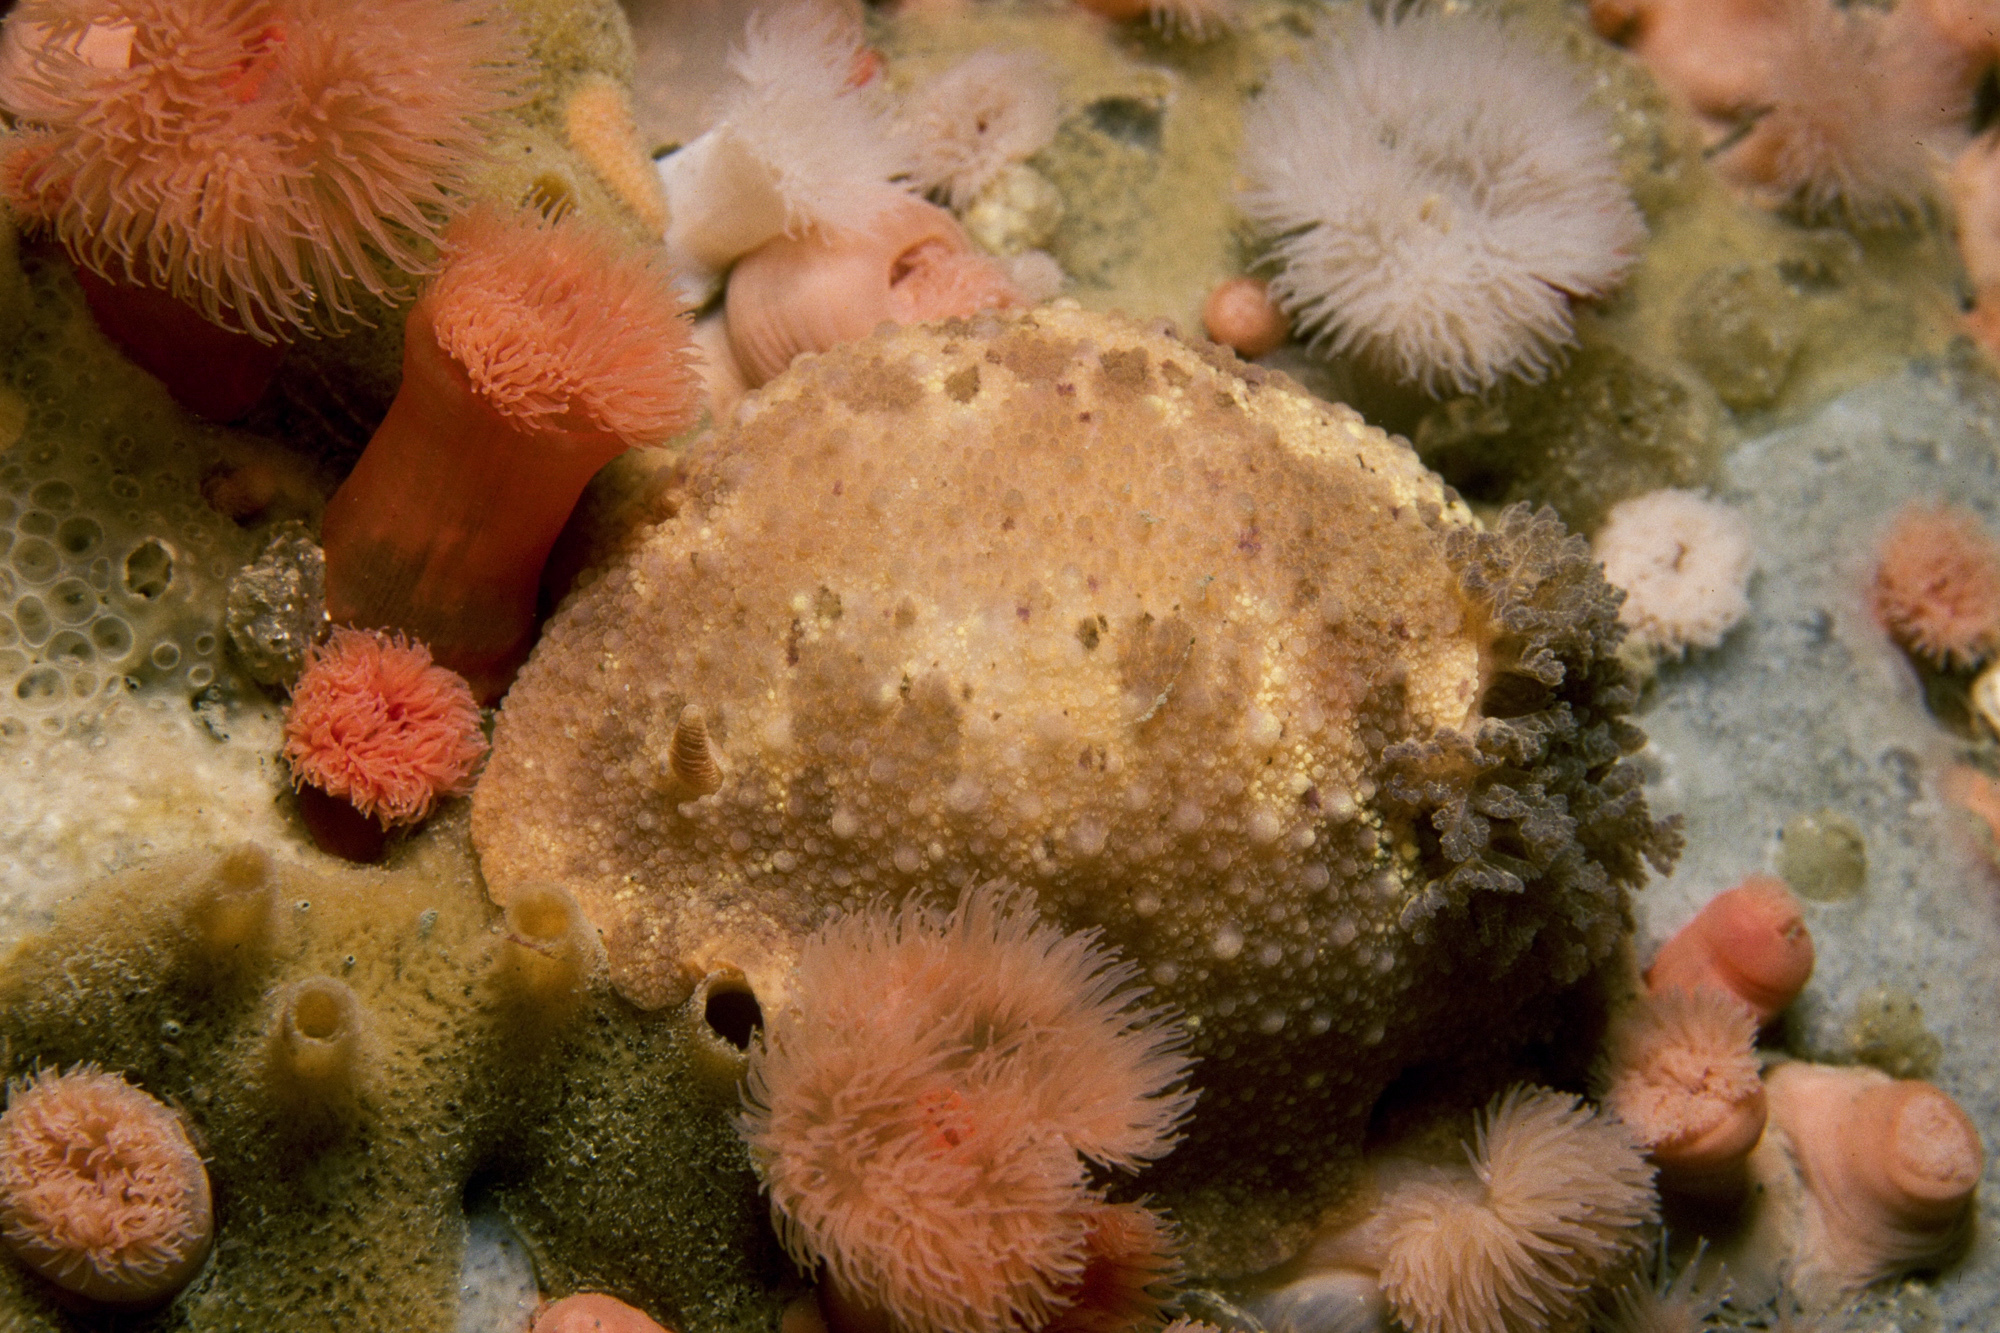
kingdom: Animalia
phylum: Mollusca
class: Gastropoda
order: Nudibranchia
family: Dorididae
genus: Doris
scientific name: Doris pseudoargus
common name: Sea lemon
